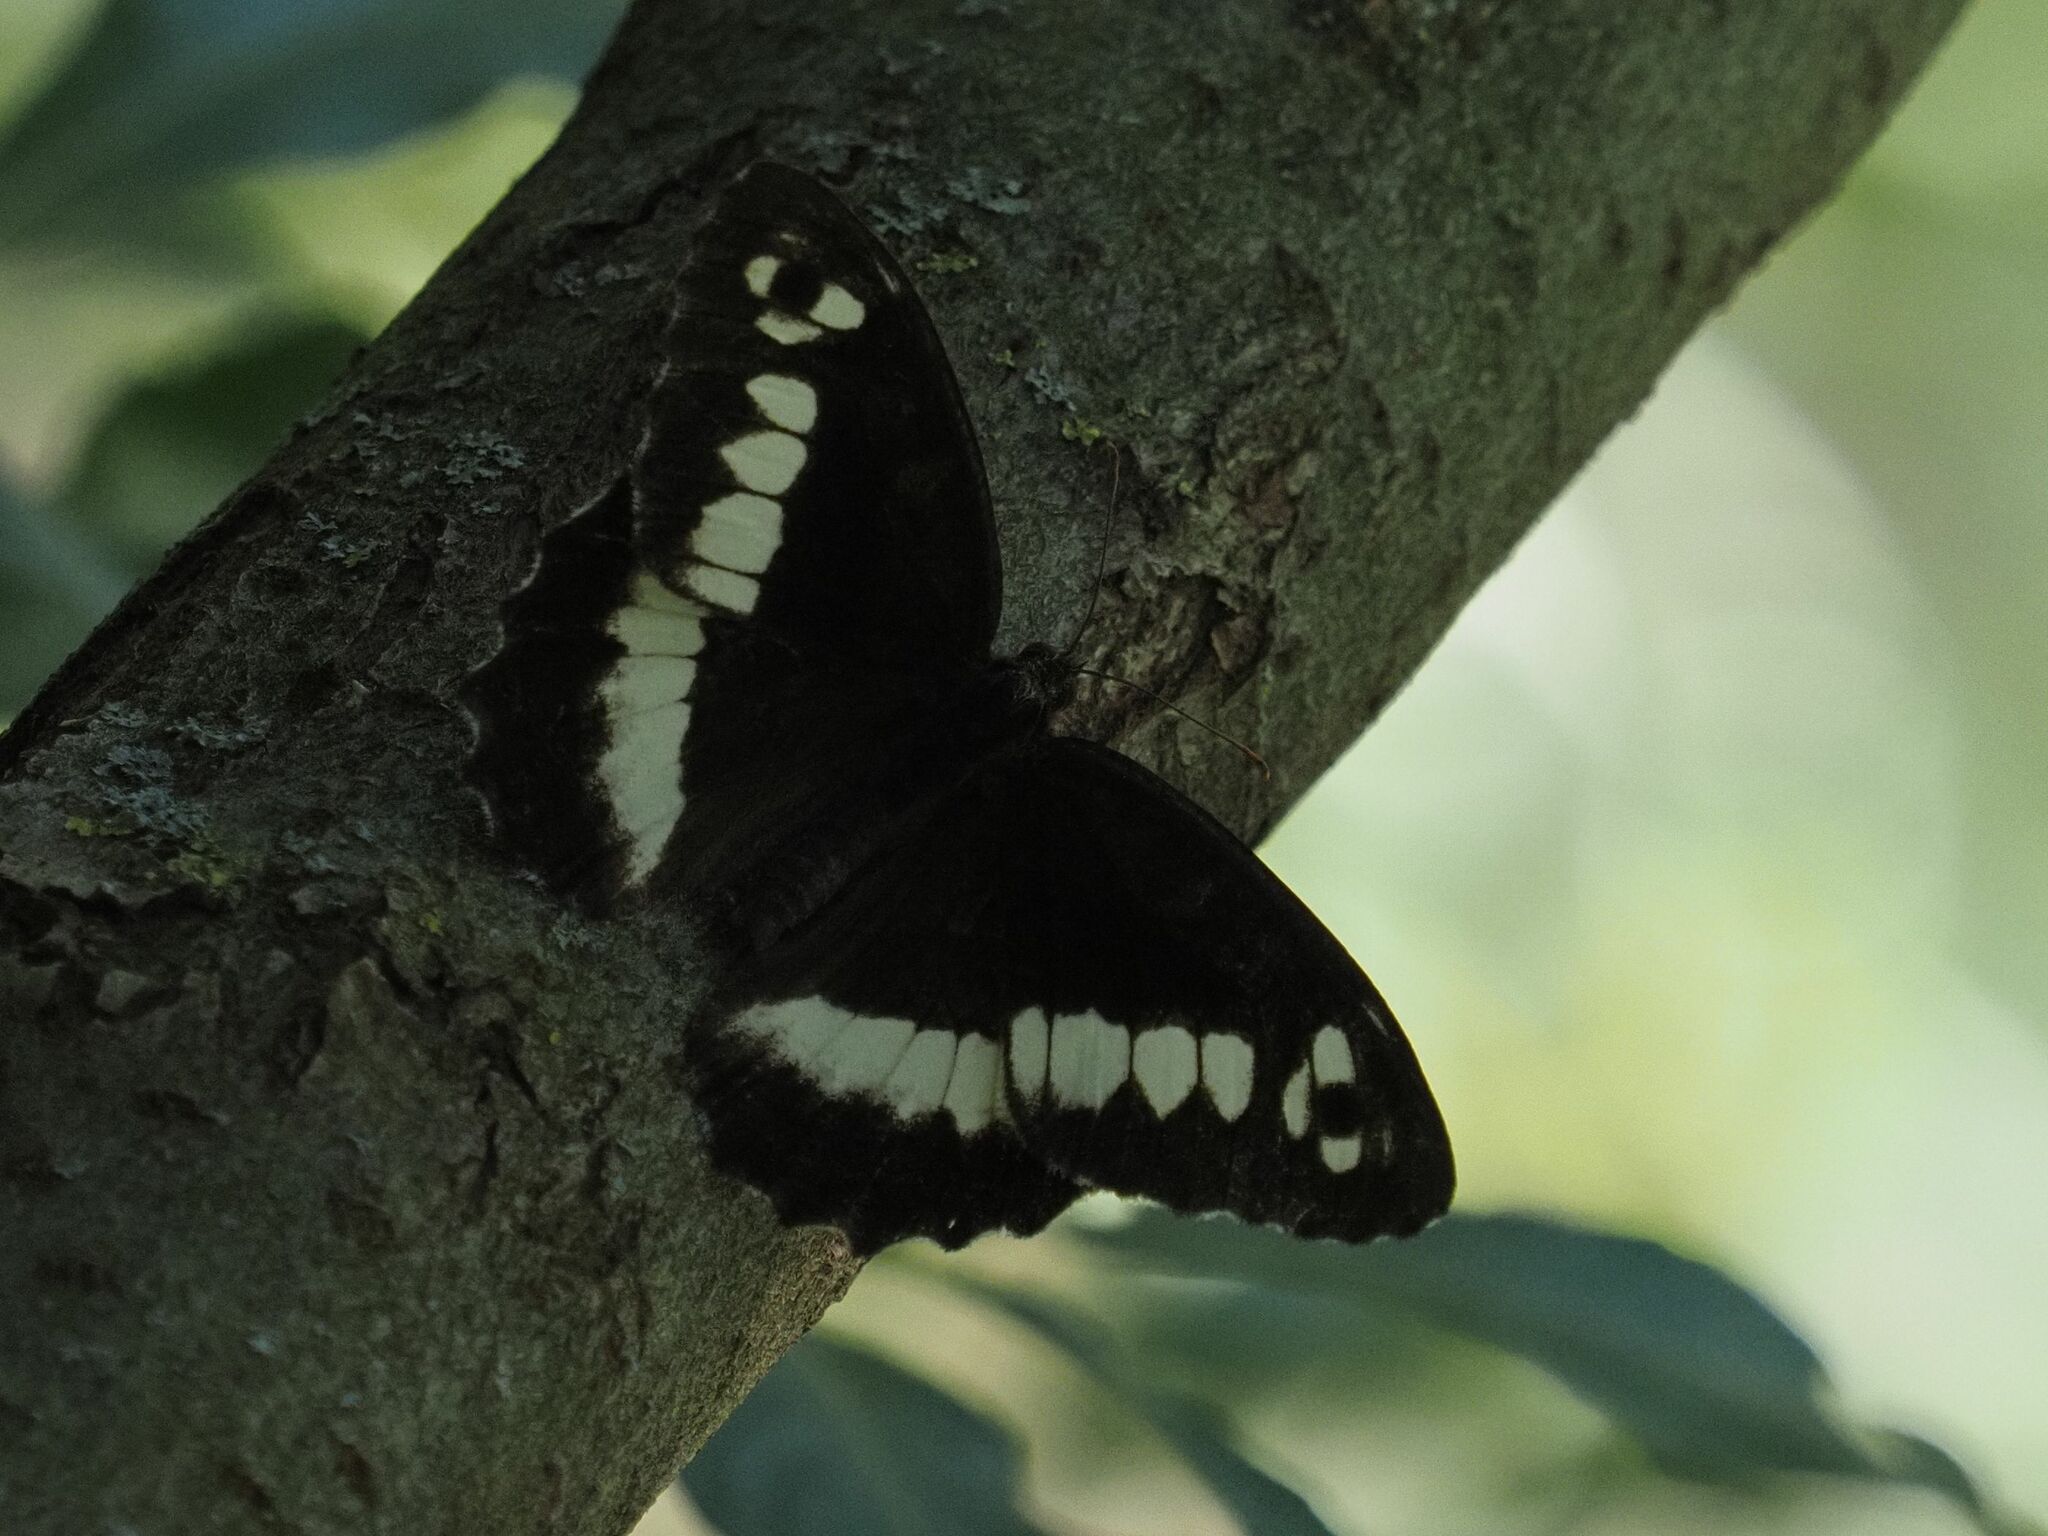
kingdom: Animalia
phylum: Arthropoda
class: Insecta
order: Lepidoptera
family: Lycaenidae
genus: Loweia
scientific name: Loweia tityrus
